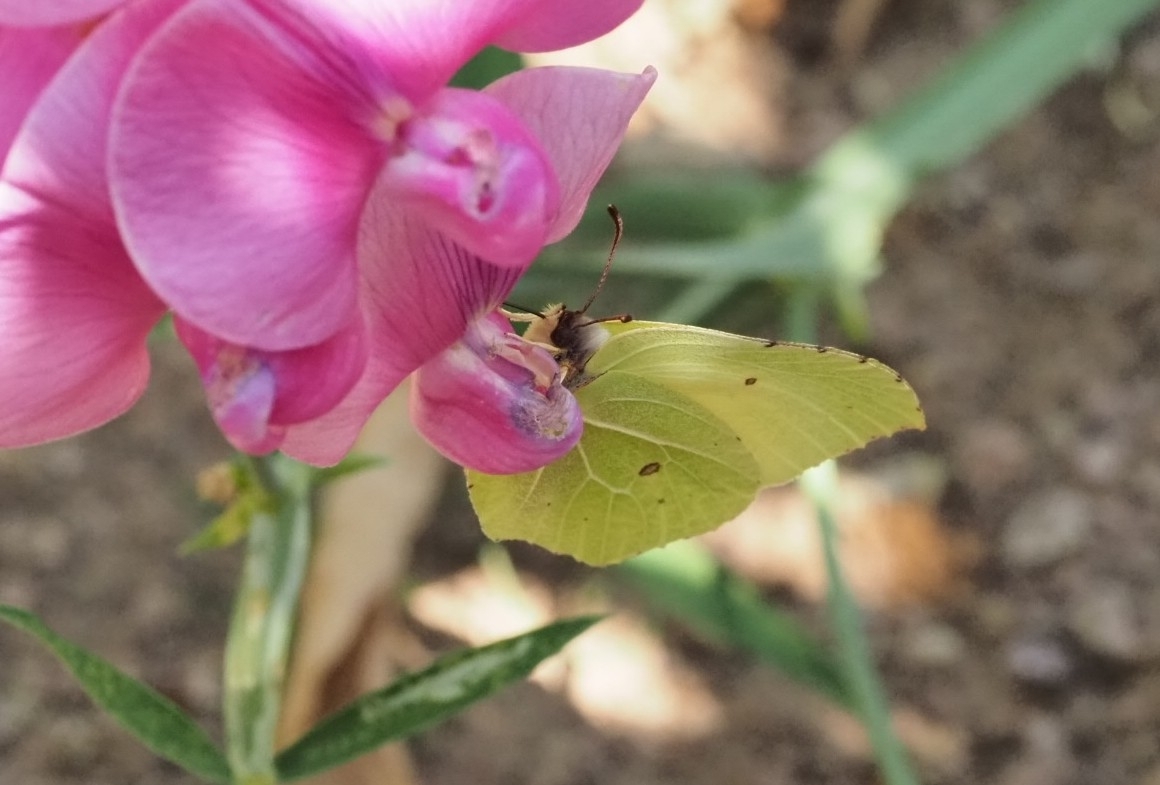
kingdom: Animalia
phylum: Arthropoda
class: Insecta
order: Lepidoptera
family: Pieridae
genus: Gonepteryx
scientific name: Gonepteryx rhamni
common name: Brimstone
